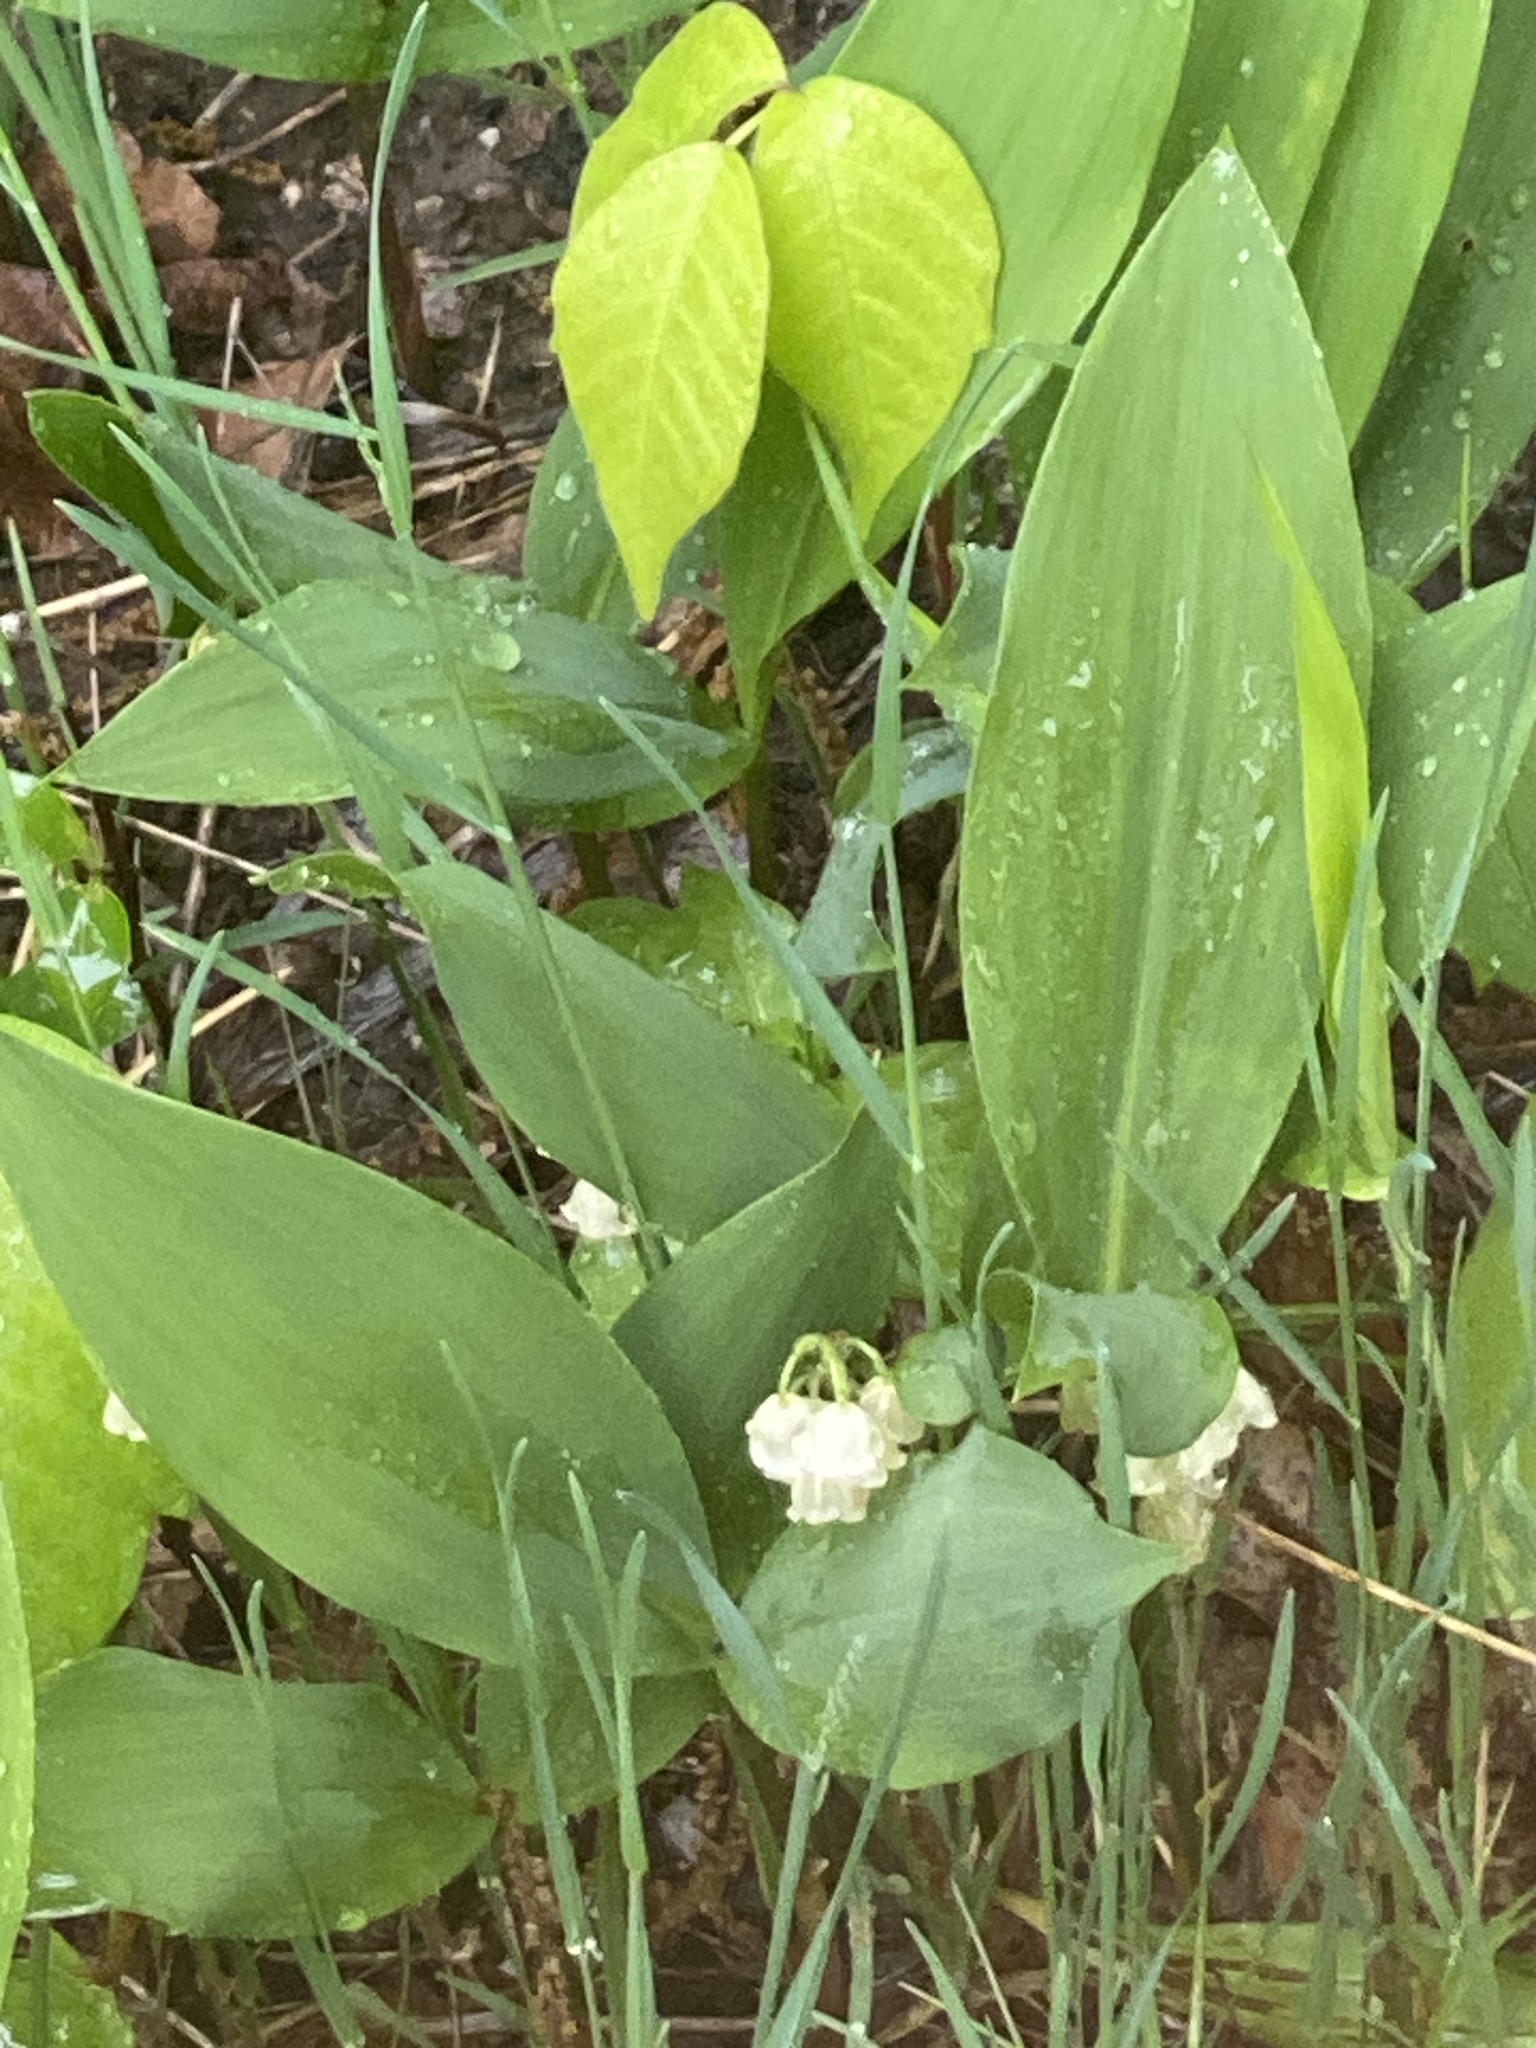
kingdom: Plantae
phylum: Tracheophyta
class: Liliopsida
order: Asparagales
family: Asparagaceae
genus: Convallaria
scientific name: Convallaria majalis
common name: Lily-of-the-valley
